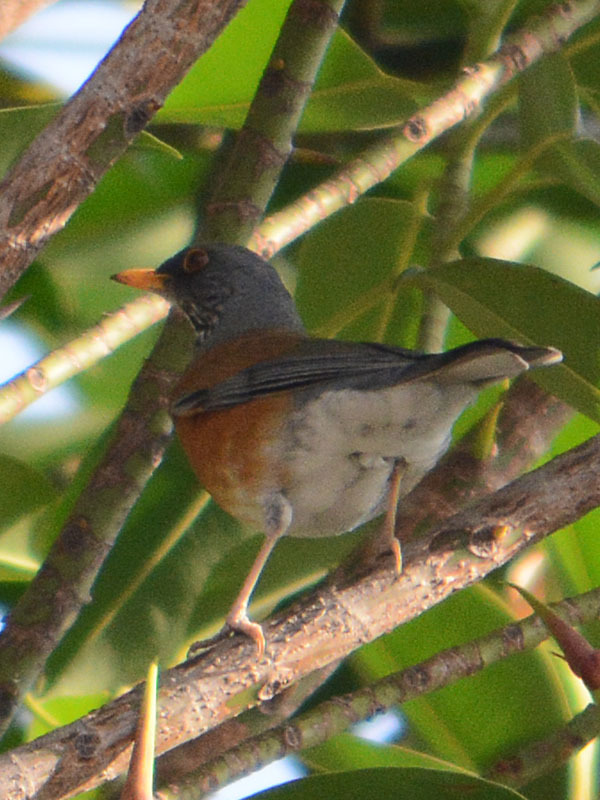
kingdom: Animalia
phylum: Chordata
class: Aves
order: Passeriformes
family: Turdidae
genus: Turdus
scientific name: Turdus rufopalliatus
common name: Rufous-backed robin
